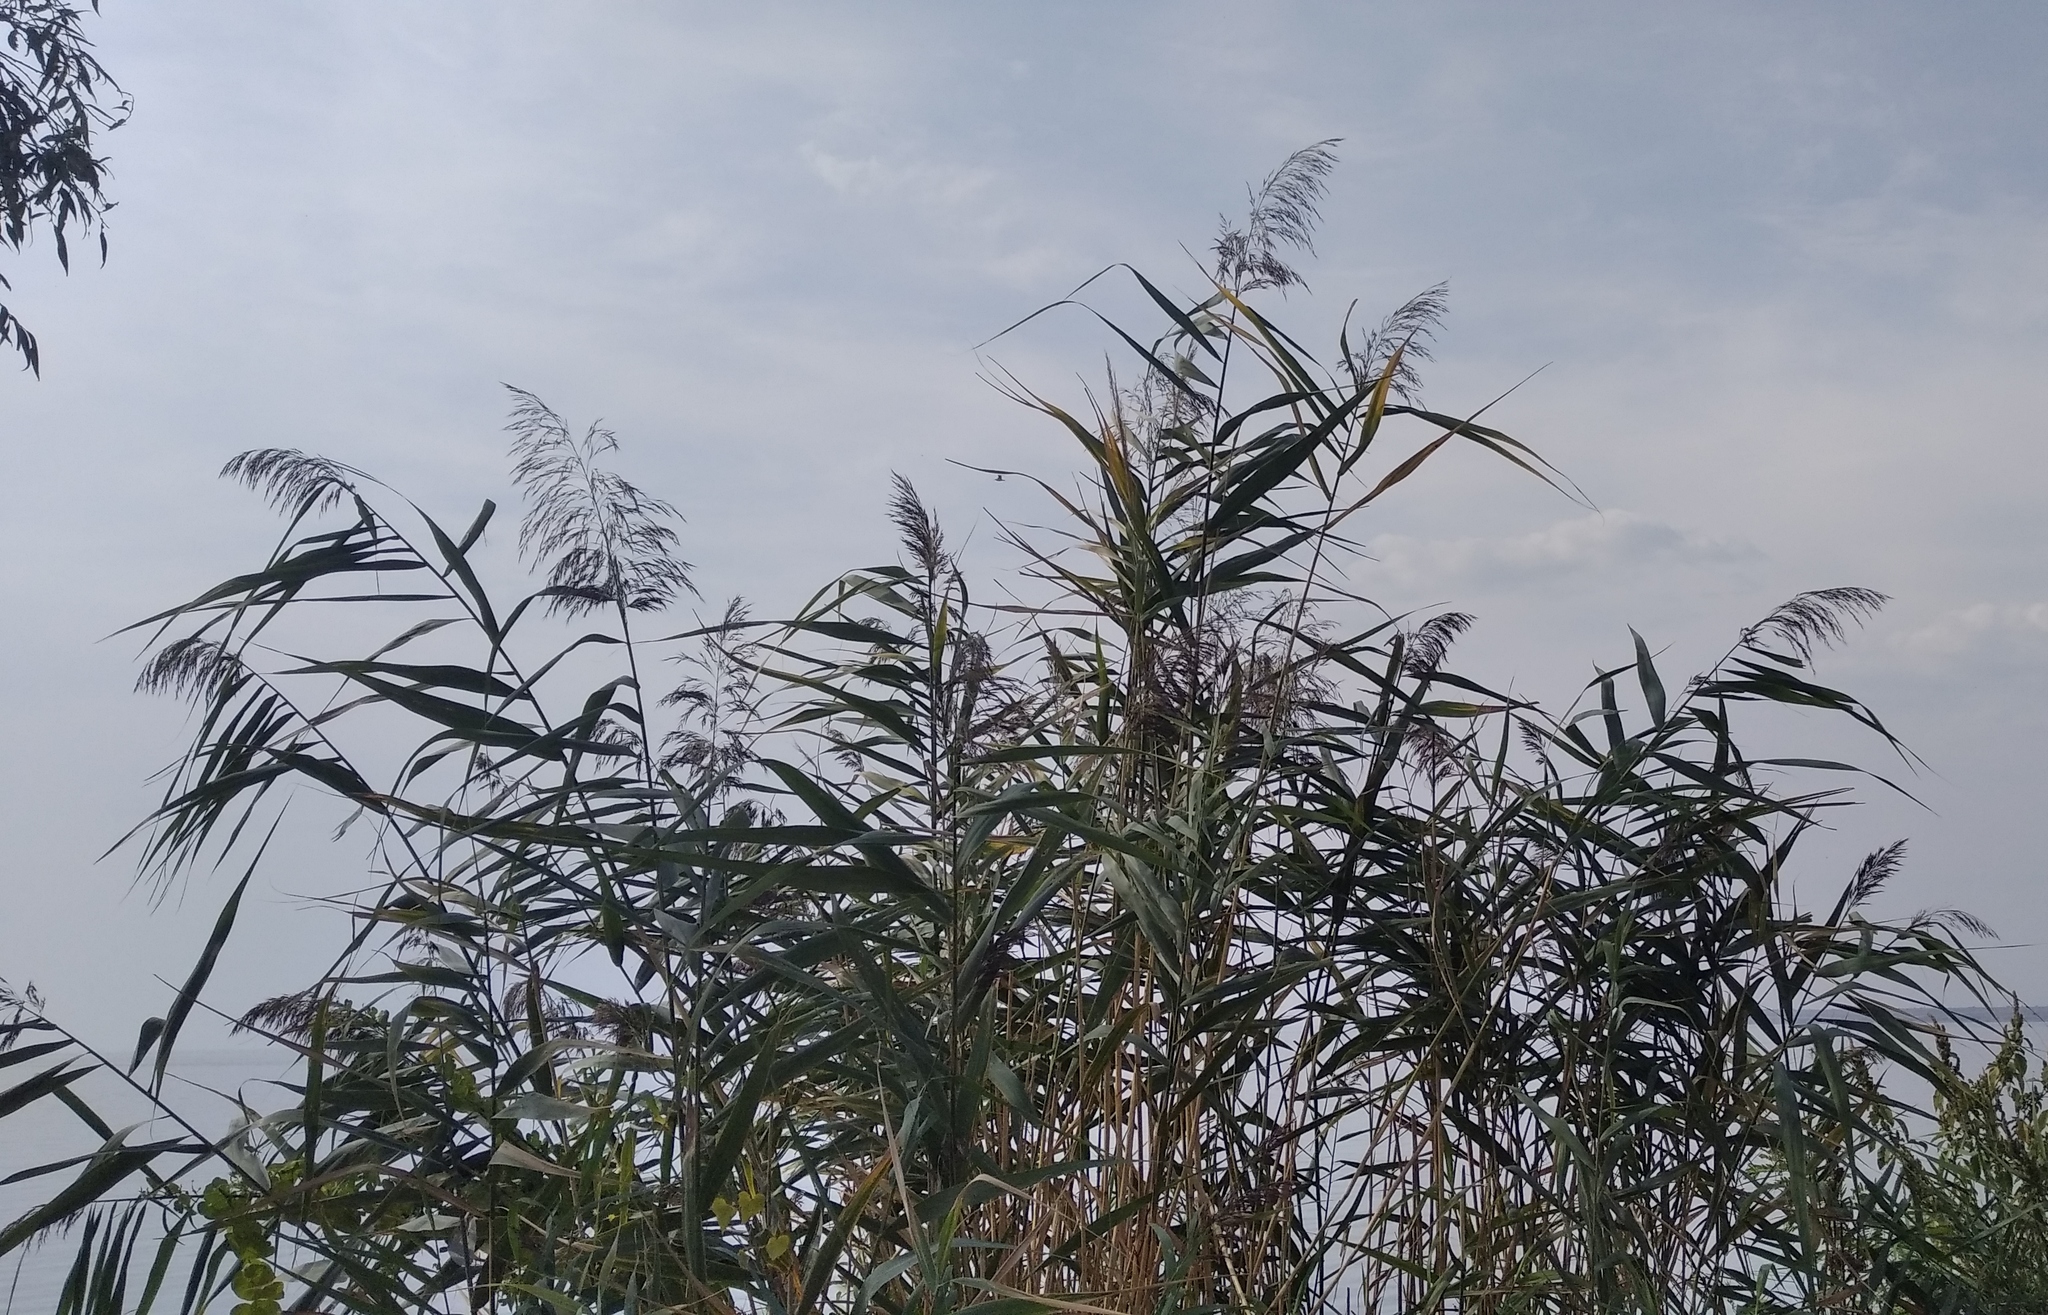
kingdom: Plantae
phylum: Tracheophyta
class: Liliopsida
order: Poales
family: Poaceae
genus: Phragmites
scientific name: Phragmites australis
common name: Common reed
